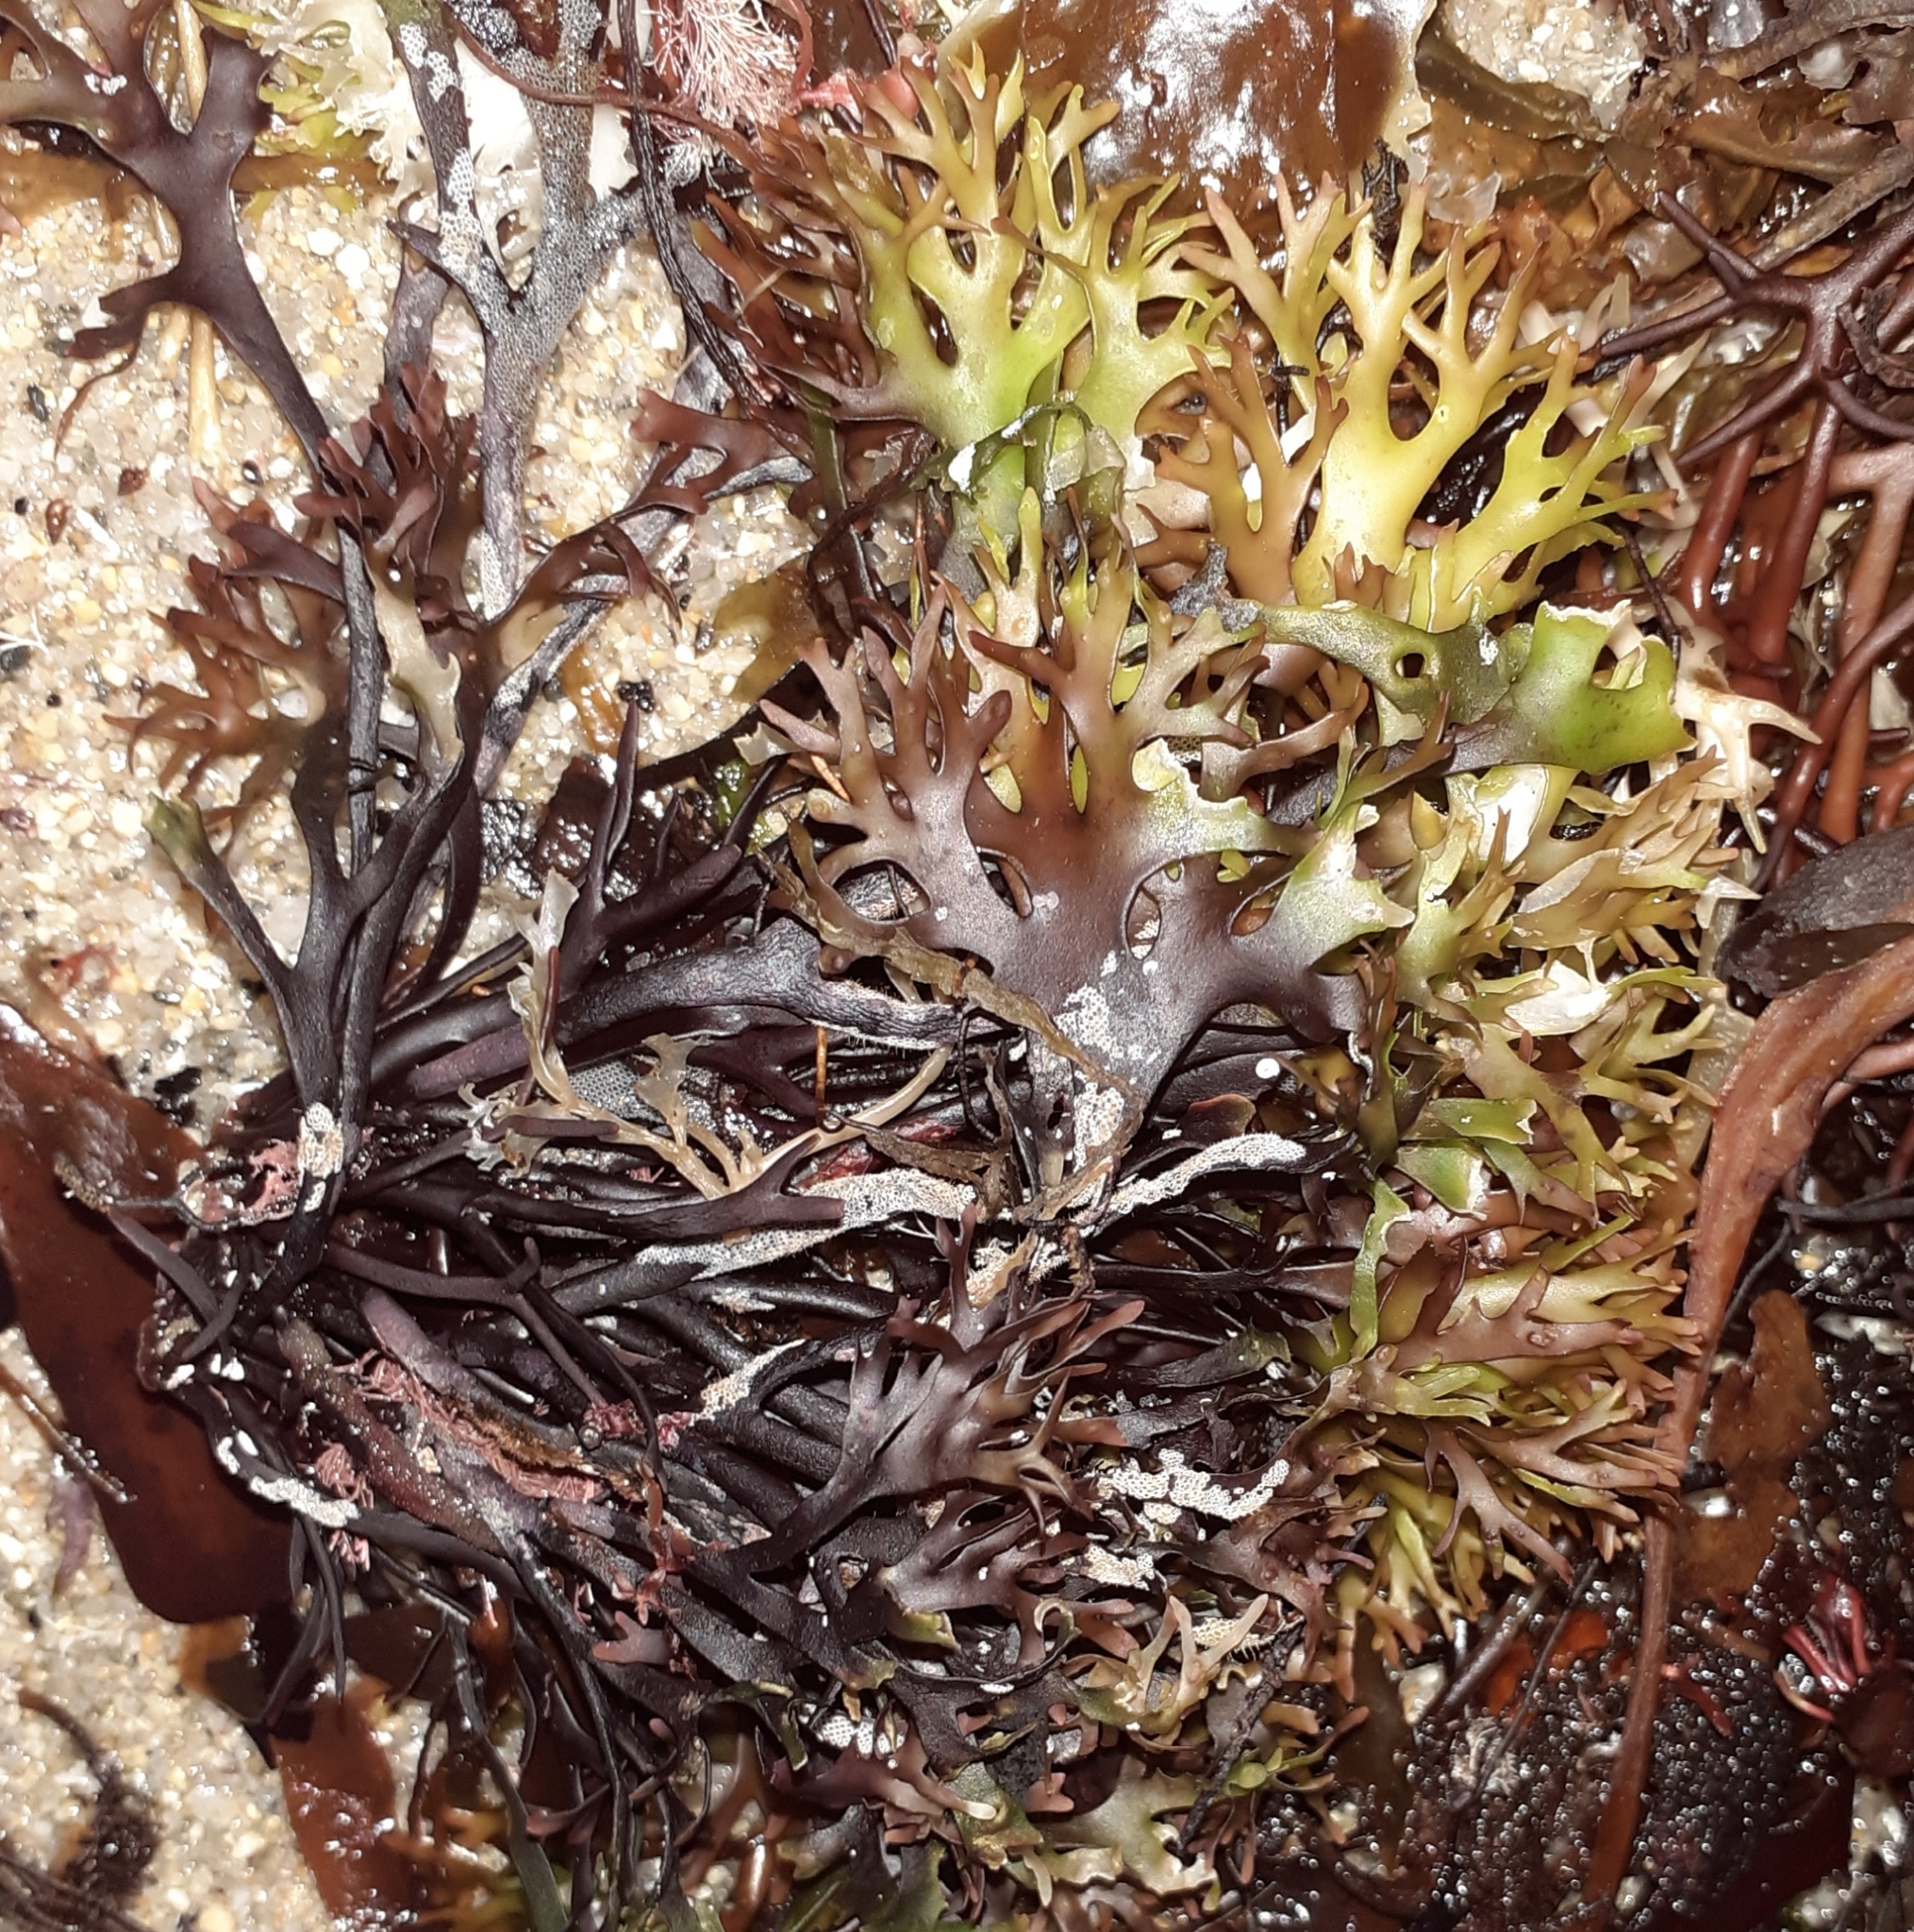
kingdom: Plantae
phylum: Rhodophyta
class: Florideophyceae
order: Gigartinales
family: Gigartinaceae
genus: Chondrus
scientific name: Chondrus crispus
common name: Carrageen
